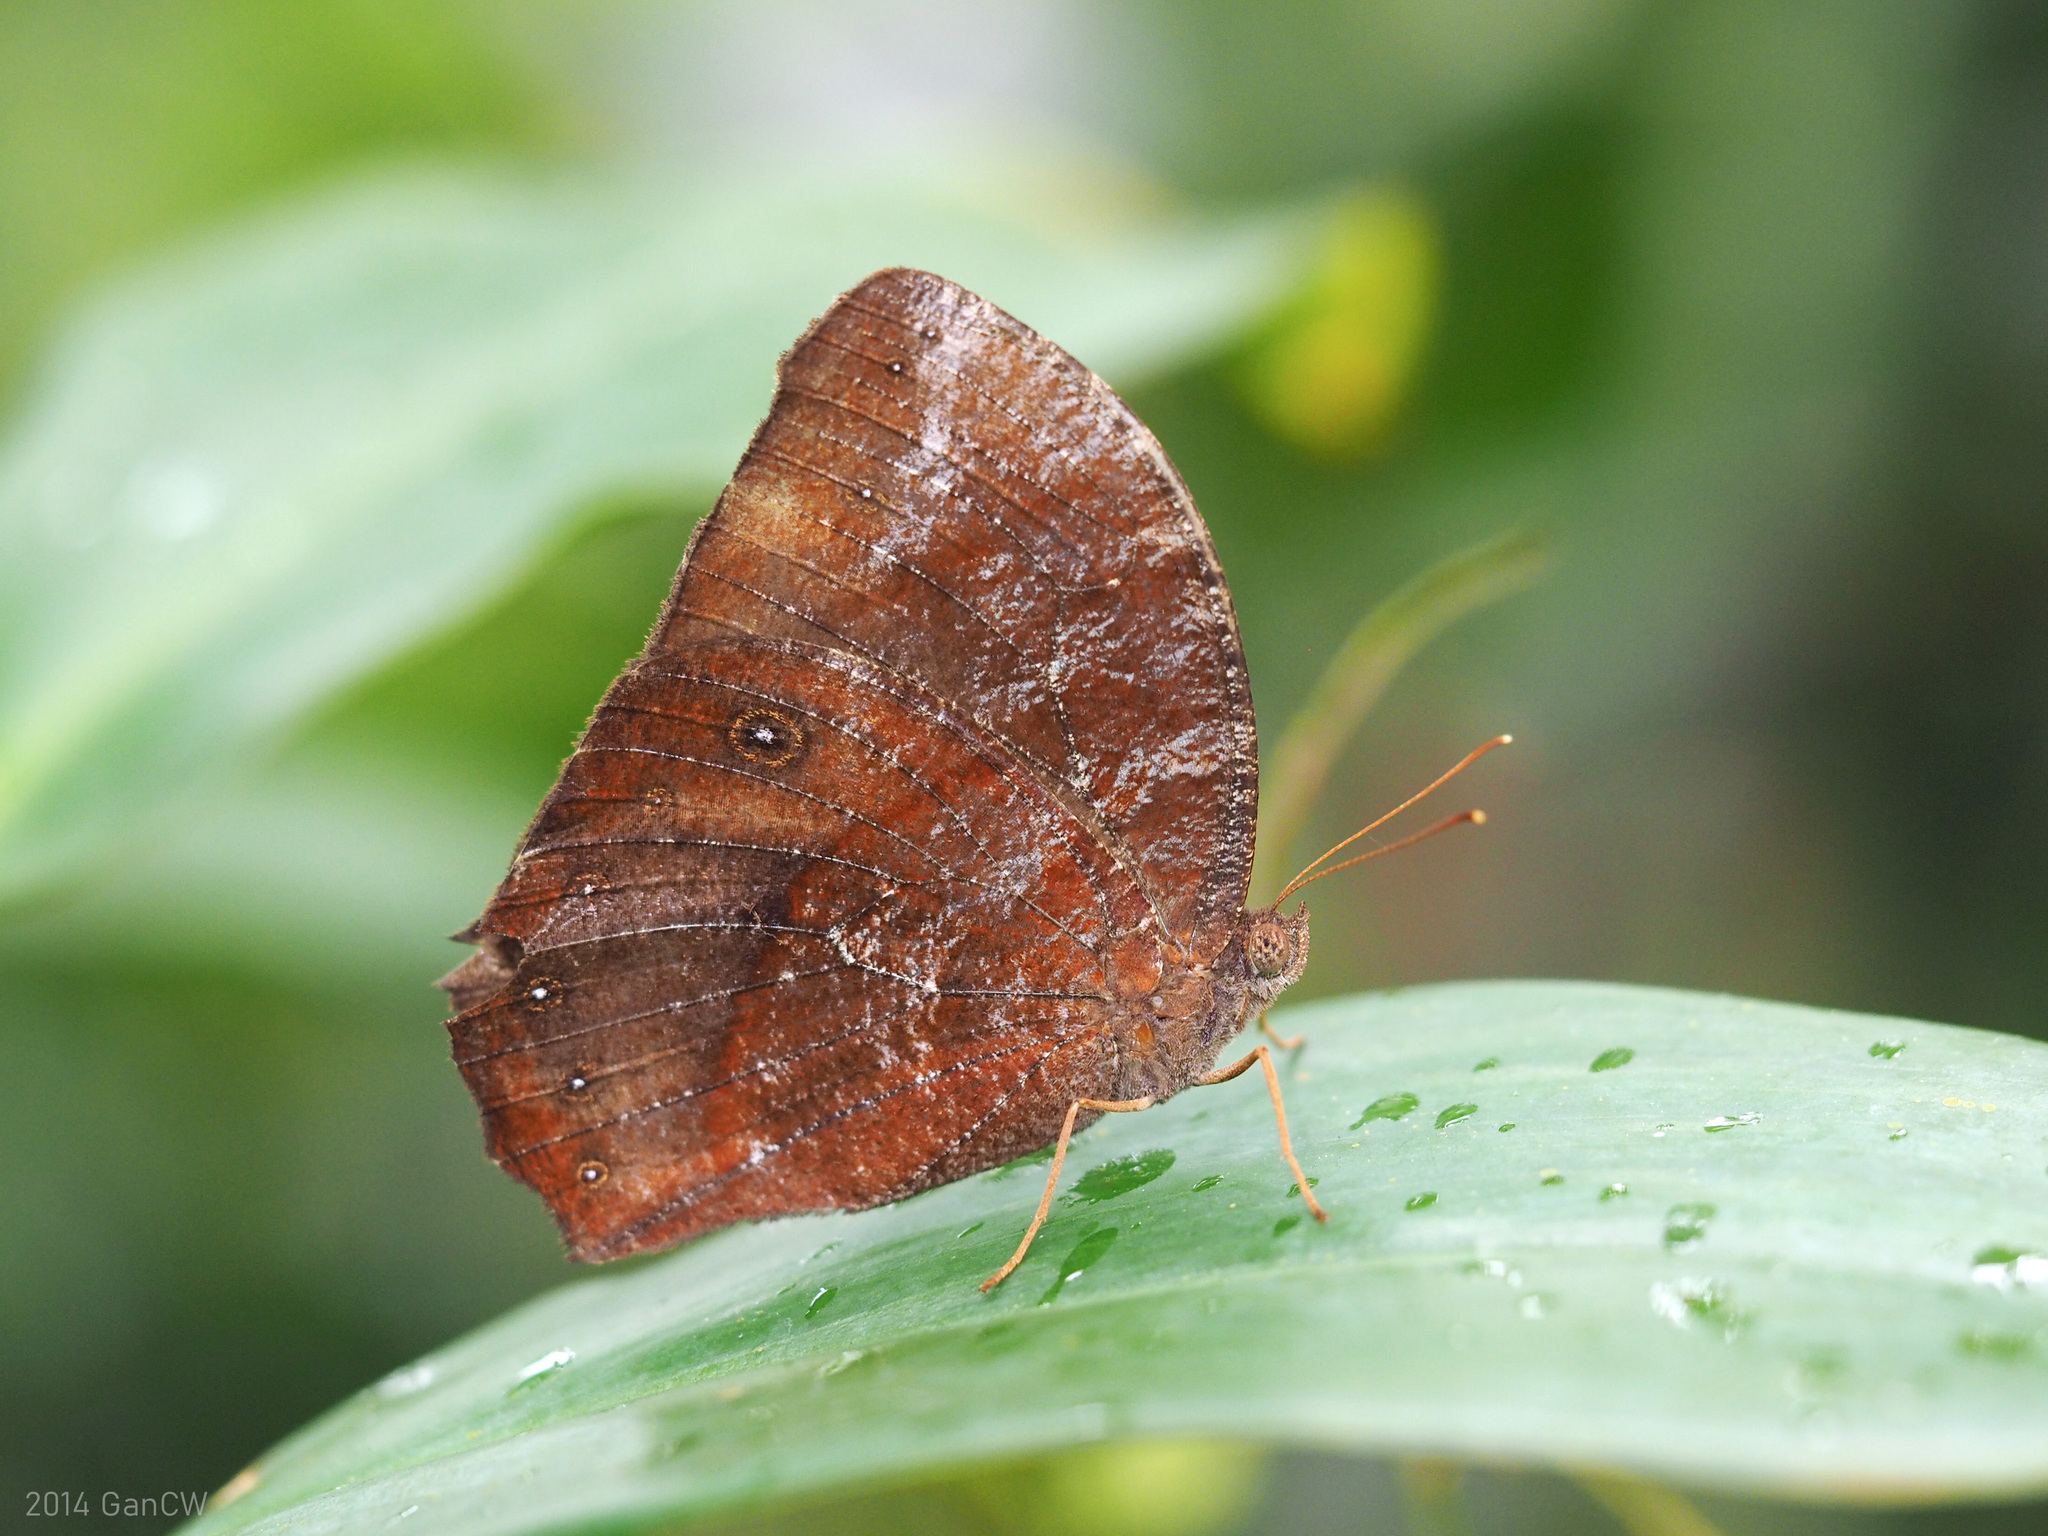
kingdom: Animalia
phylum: Arthropoda
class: Insecta
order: Lepidoptera
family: Nymphalidae
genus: Melanitis
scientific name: Melanitis phedima
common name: Dark evening brown
